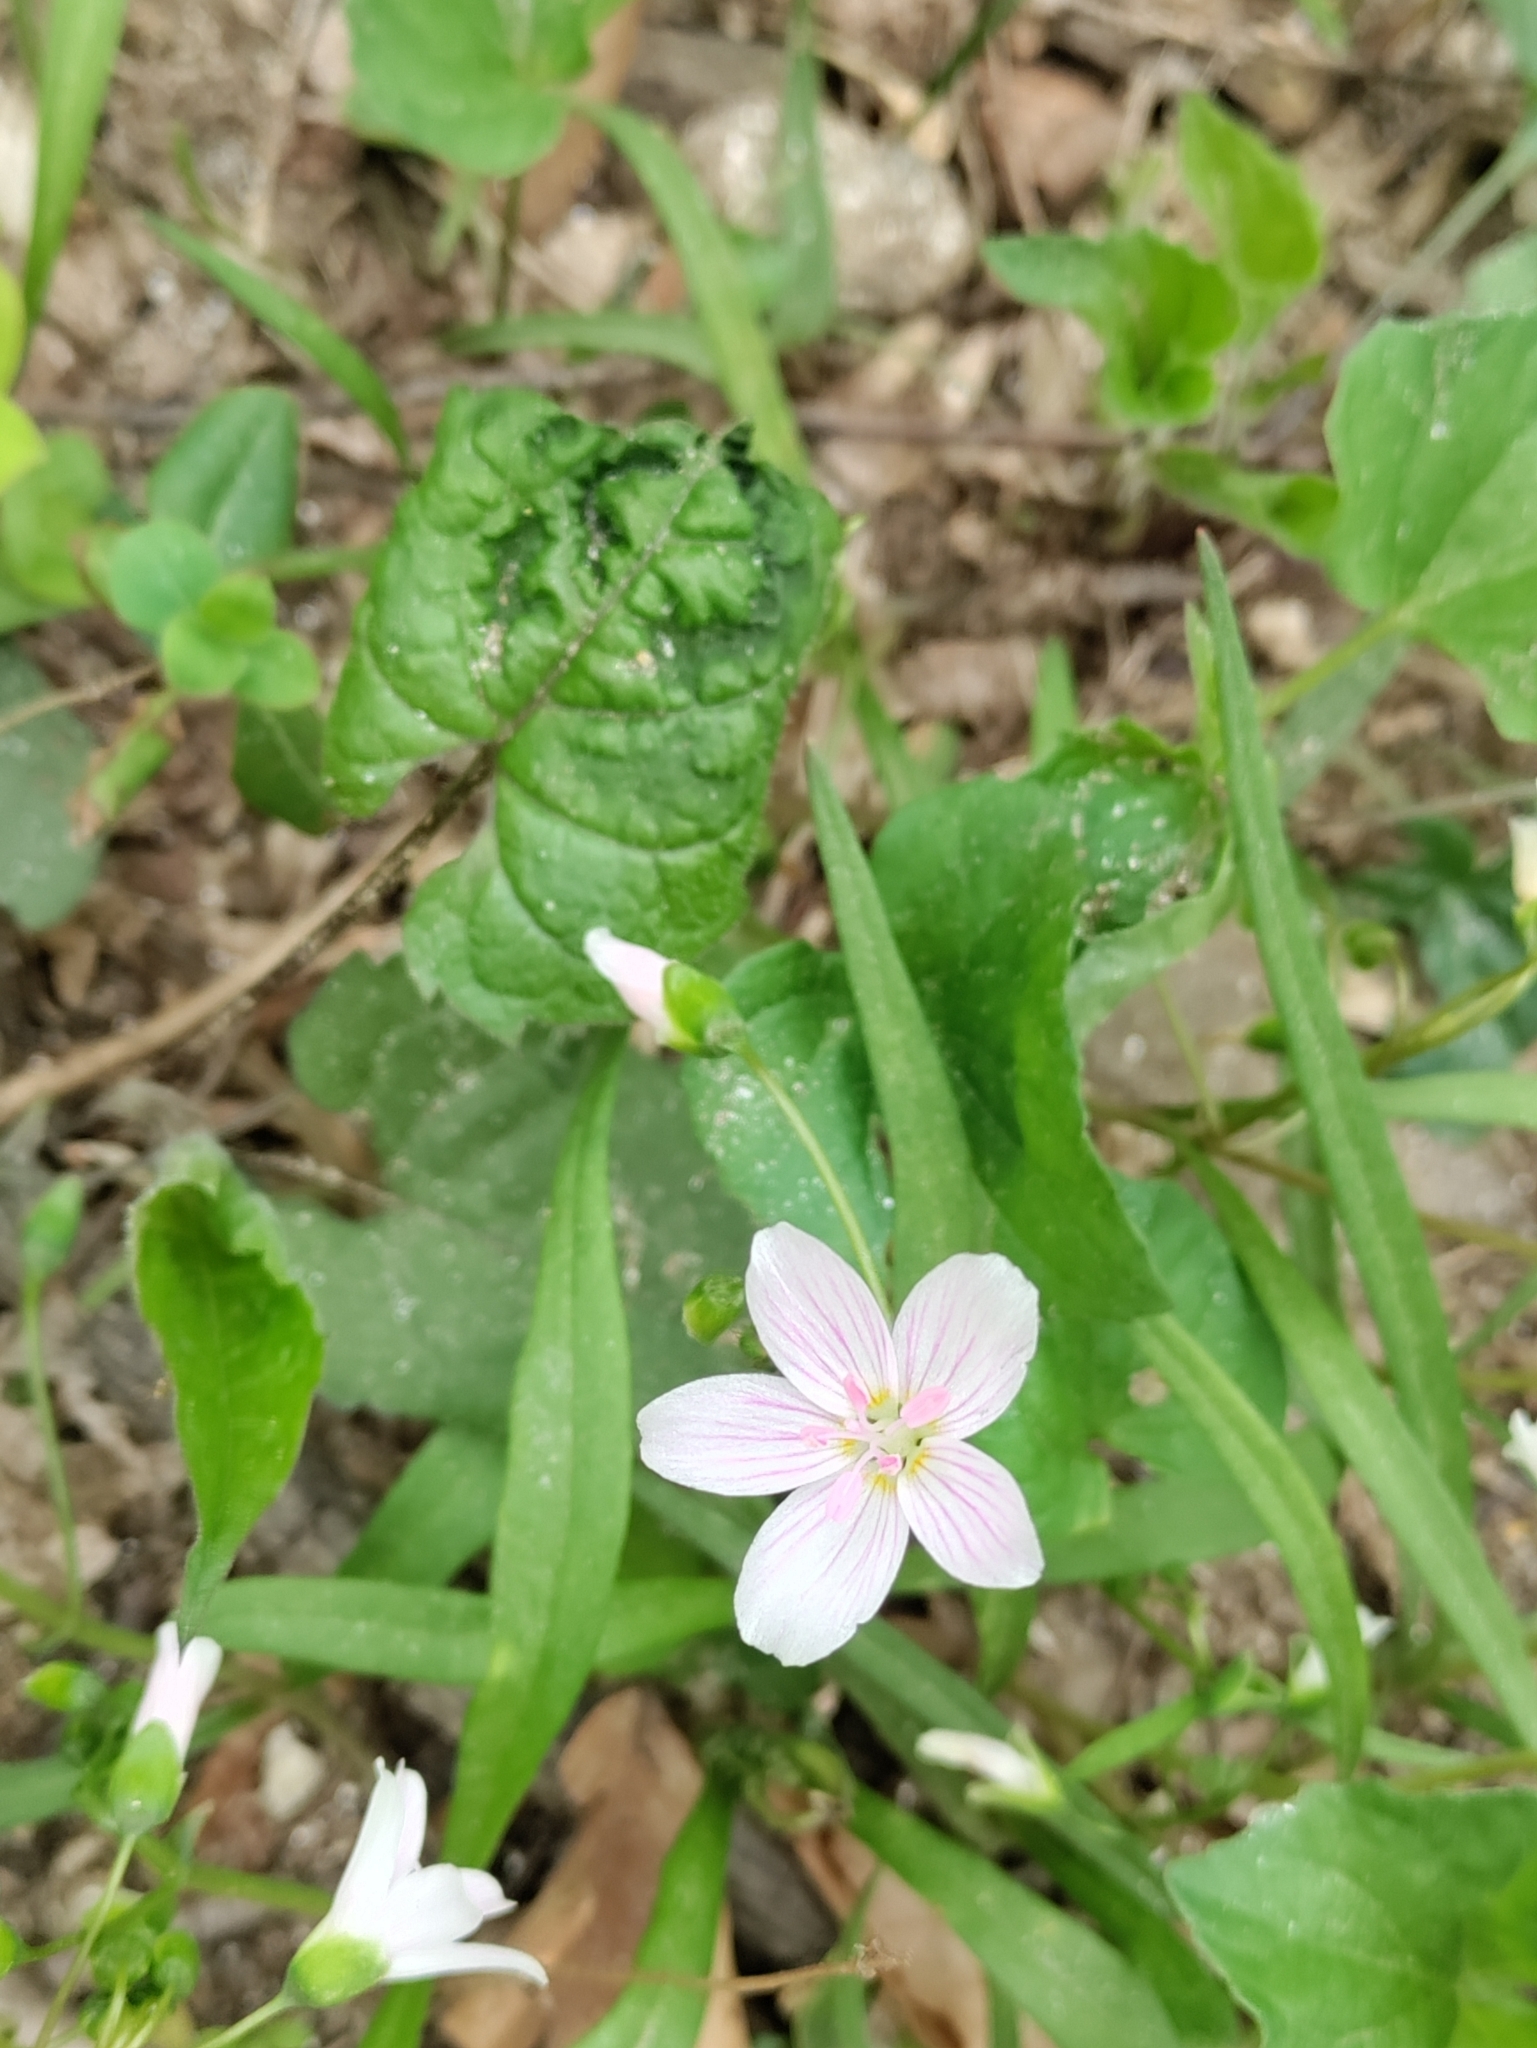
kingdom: Plantae
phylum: Tracheophyta
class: Magnoliopsida
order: Caryophyllales
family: Montiaceae
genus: Claytonia
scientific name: Claytonia virginica
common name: Virginia springbeauty
